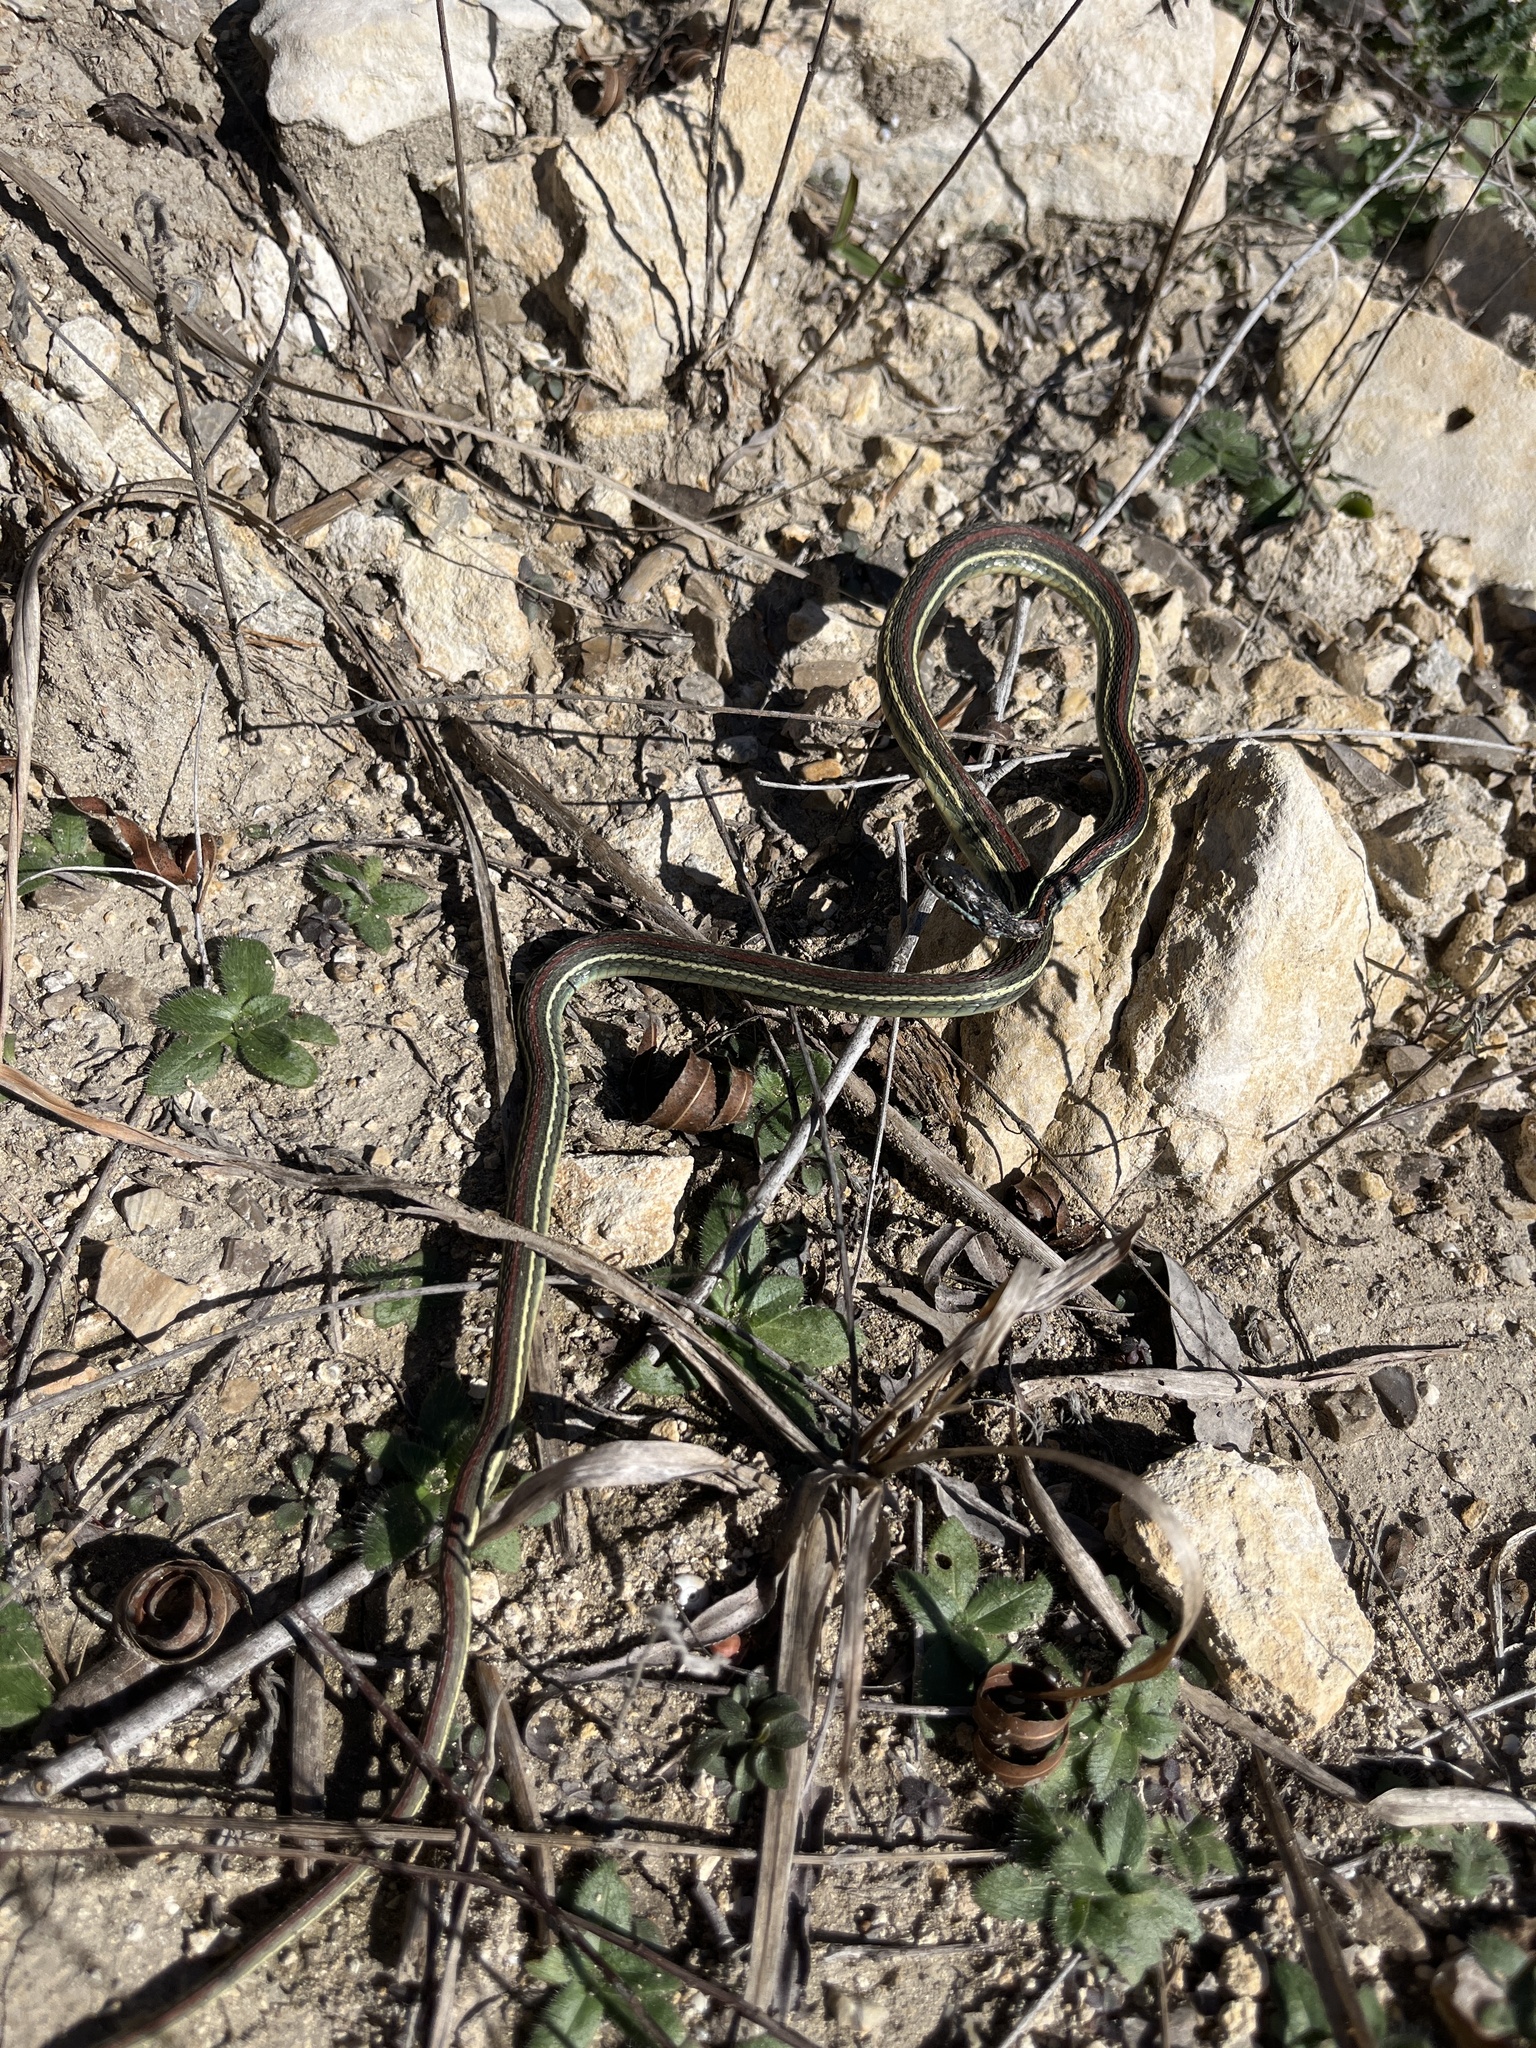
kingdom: Animalia
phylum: Chordata
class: Squamata
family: Colubridae
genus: Thamnophis
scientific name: Thamnophis proximus
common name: Western ribbon snake
